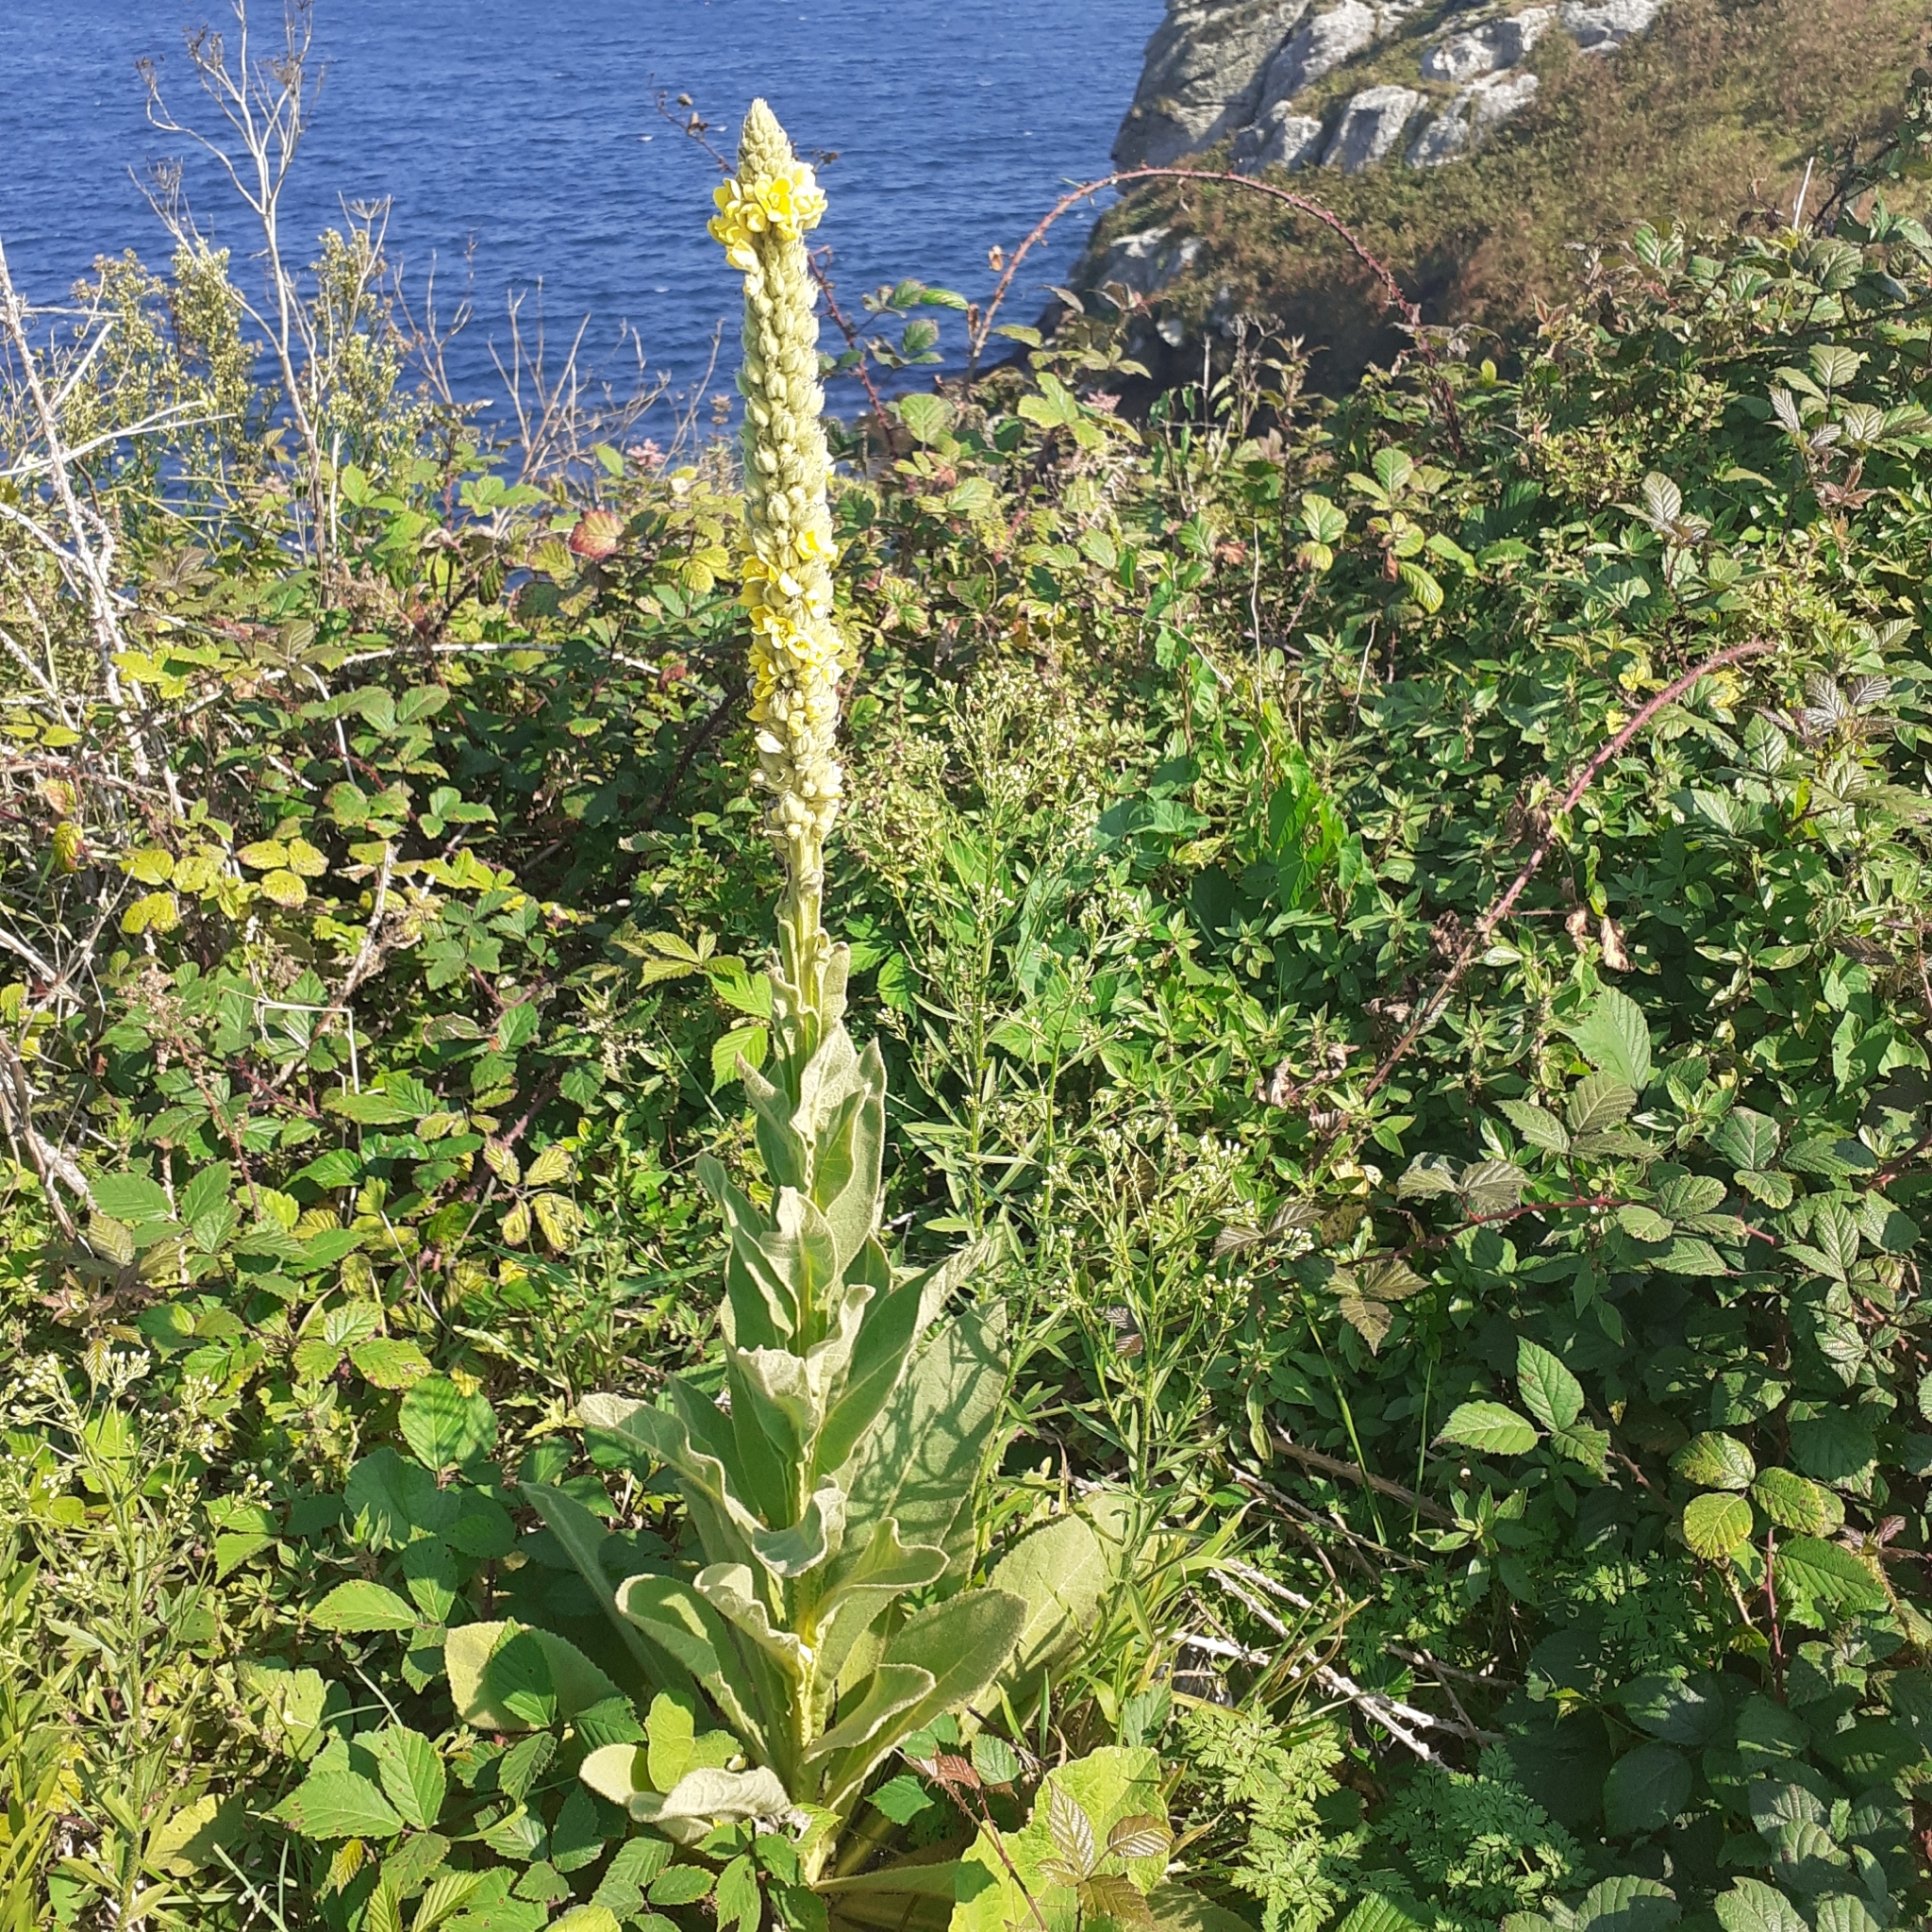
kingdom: Plantae
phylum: Tracheophyta
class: Magnoliopsida
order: Lamiales
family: Scrophulariaceae
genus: Verbascum
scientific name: Verbascum thapsus
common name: Common mullein
